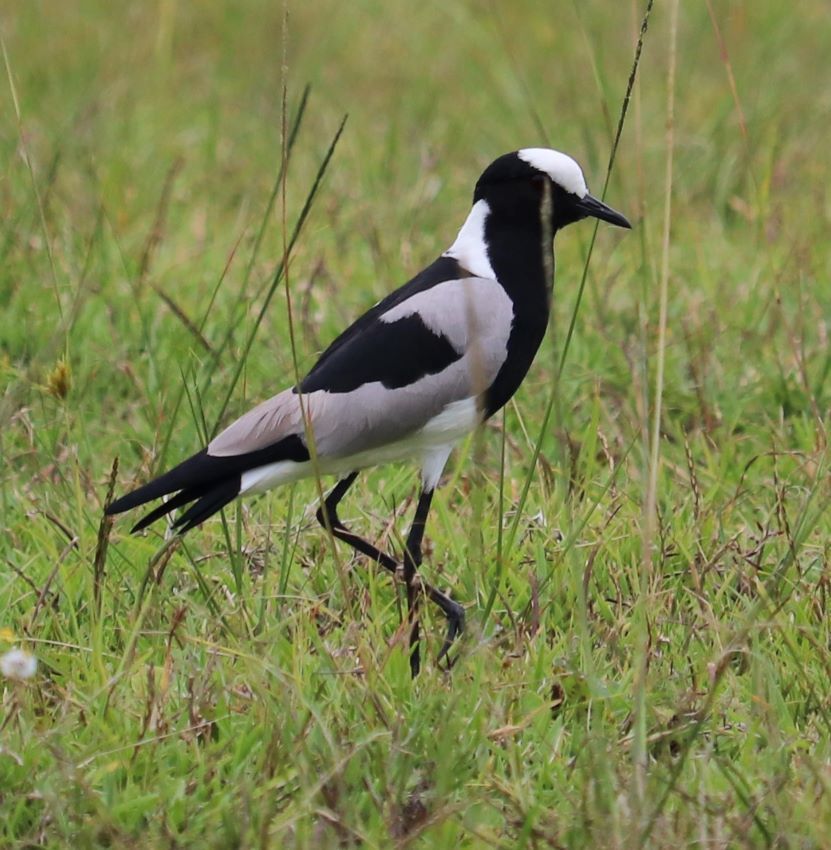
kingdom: Animalia
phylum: Chordata
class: Aves
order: Charadriiformes
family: Charadriidae
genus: Vanellus
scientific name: Vanellus armatus
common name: Blacksmith lapwing
